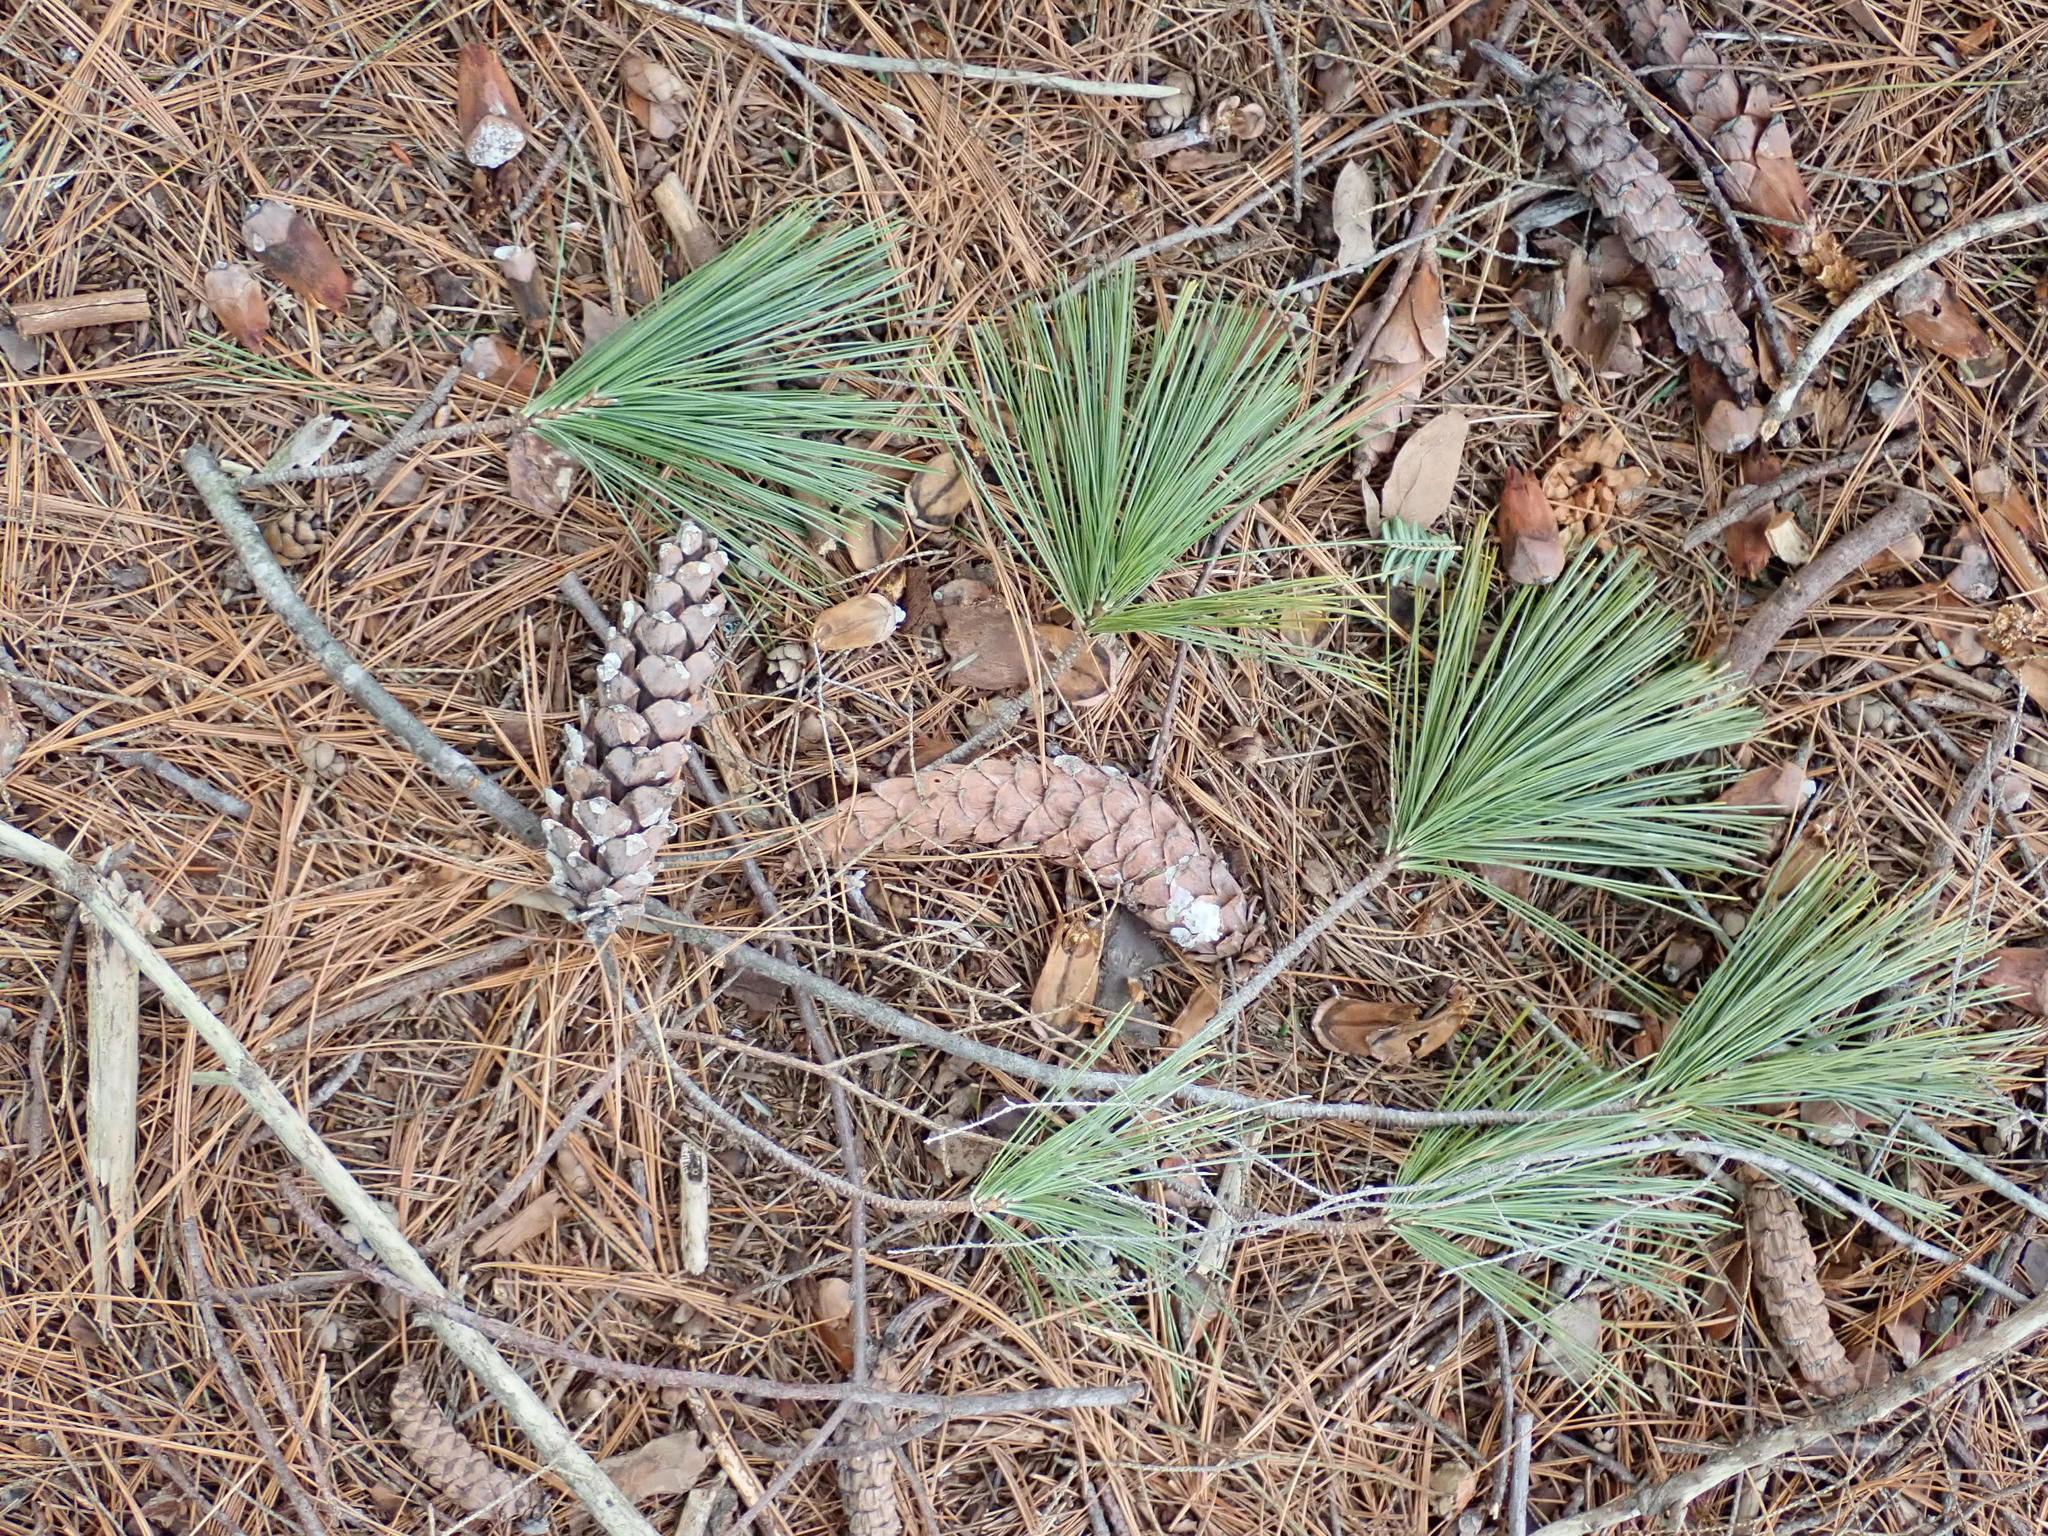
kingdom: Plantae
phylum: Tracheophyta
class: Pinopsida
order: Pinales
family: Pinaceae
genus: Pinus
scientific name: Pinus strobus
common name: Weymouth pine
